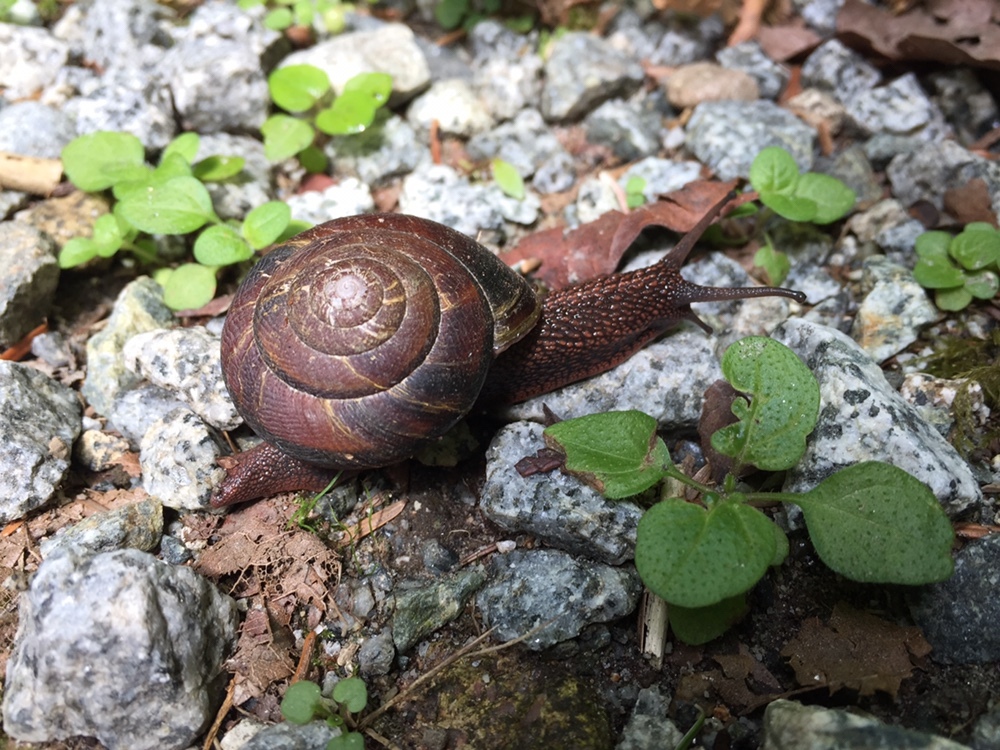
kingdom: Animalia
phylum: Mollusca
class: Gastropoda
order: Stylommatophora
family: Xanthonychidae
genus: Monadenia
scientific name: Monadenia fidelis
